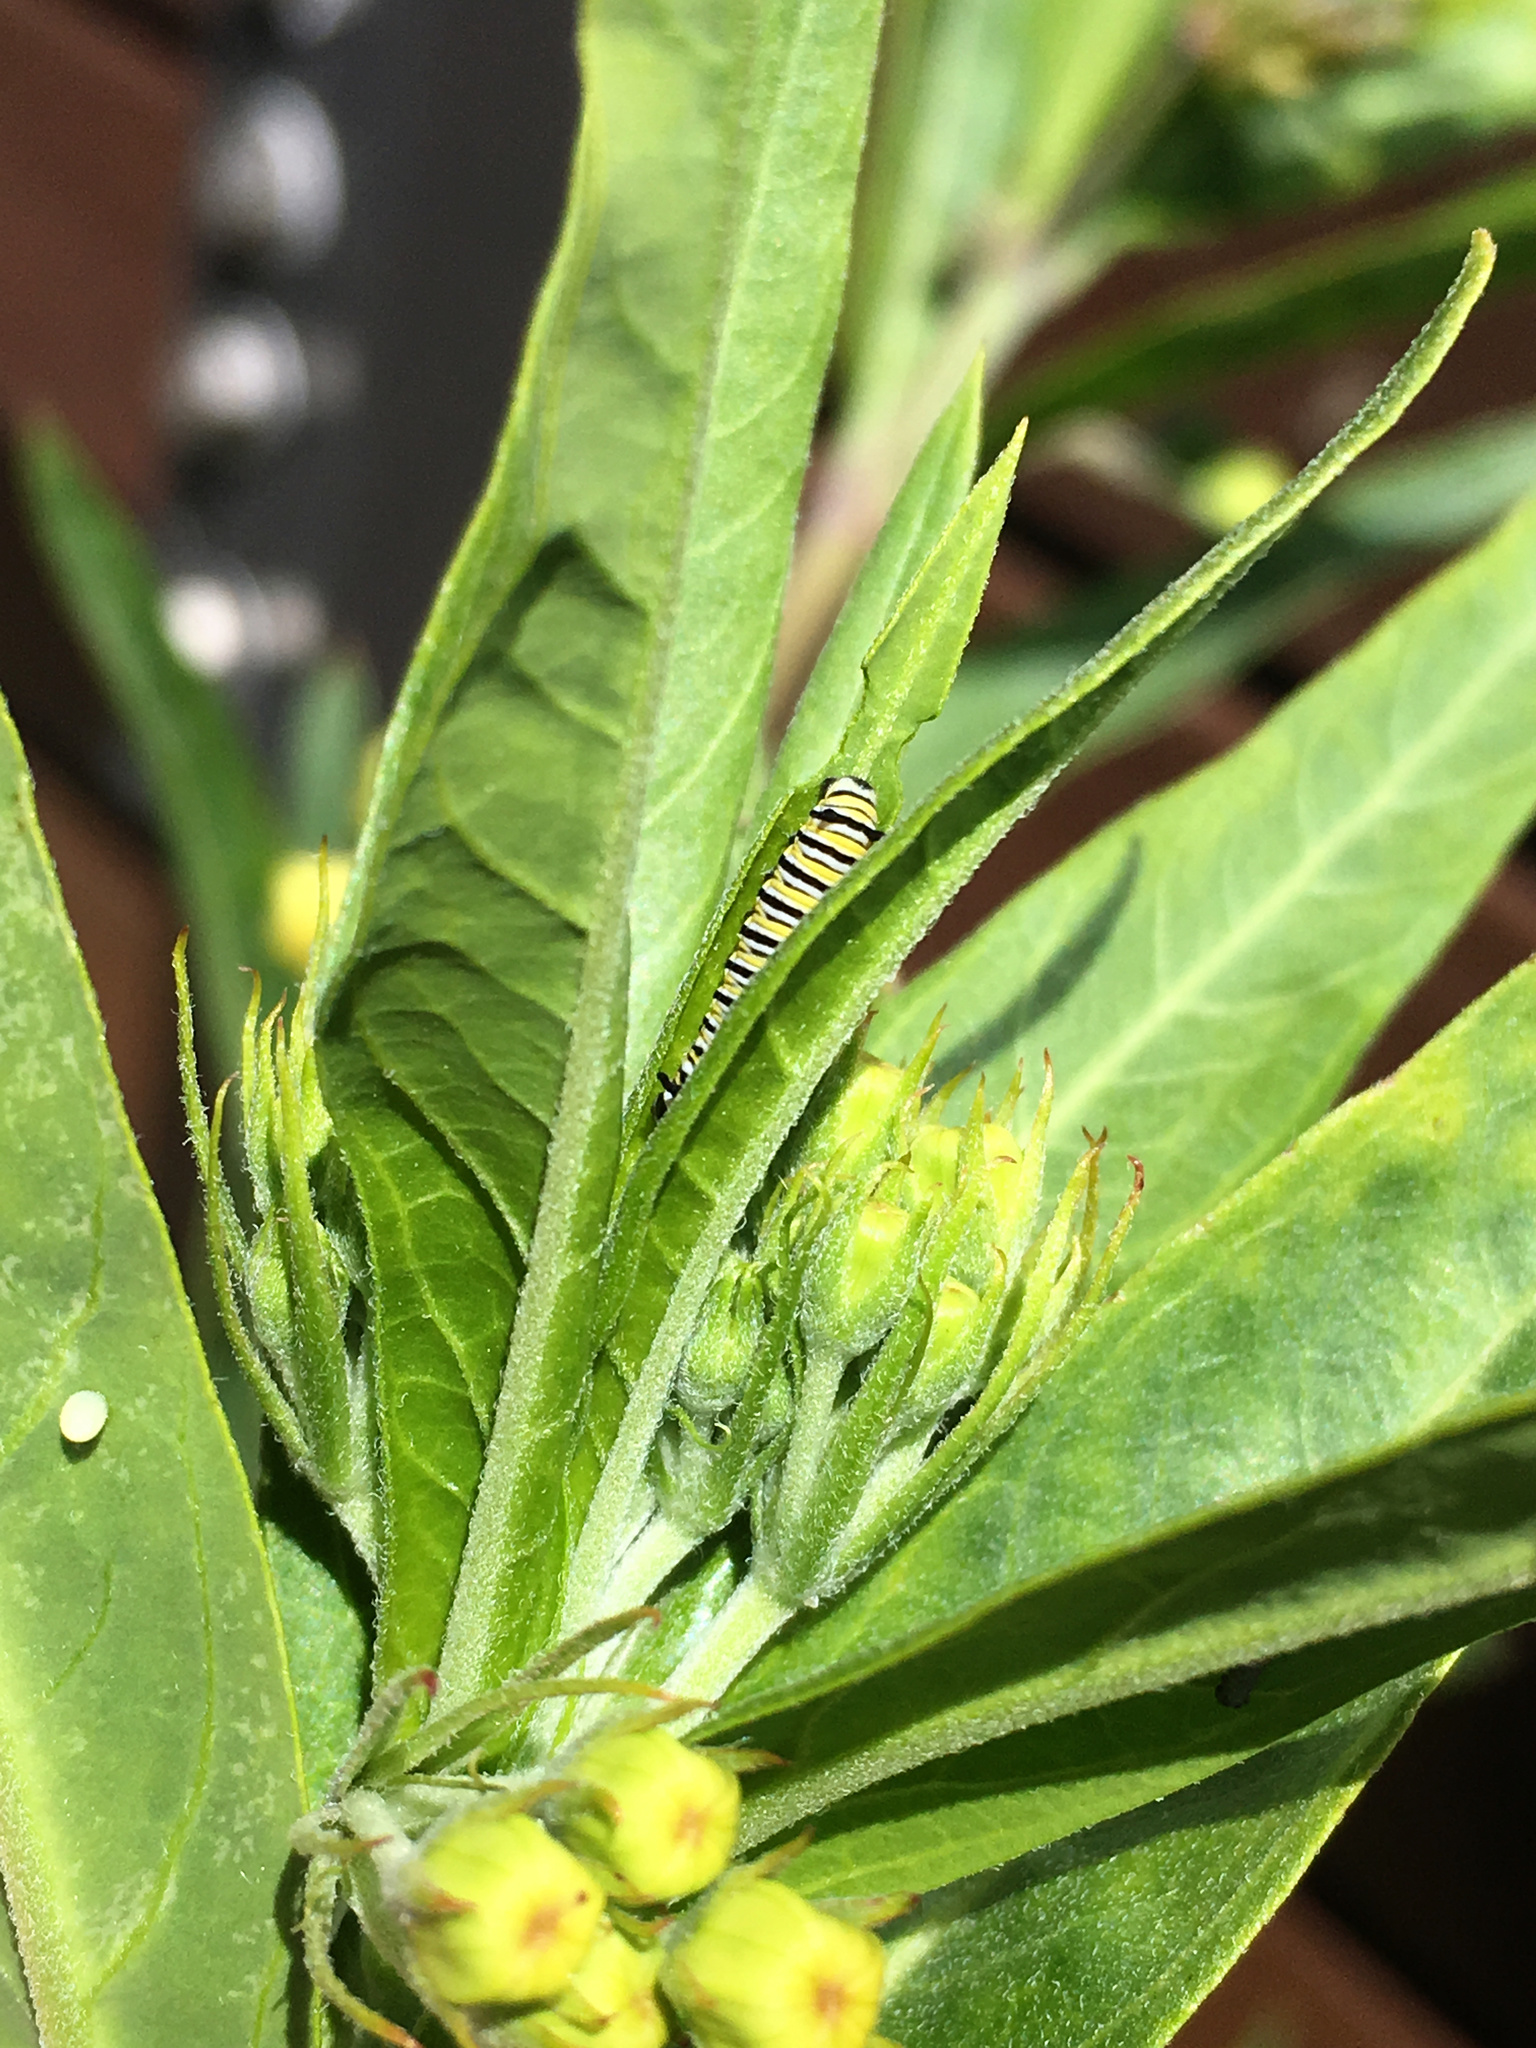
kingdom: Animalia
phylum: Arthropoda
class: Insecta
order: Lepidoptera
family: Nymphalidae
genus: Danaus
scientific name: Danaus plexippus
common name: Monarch
